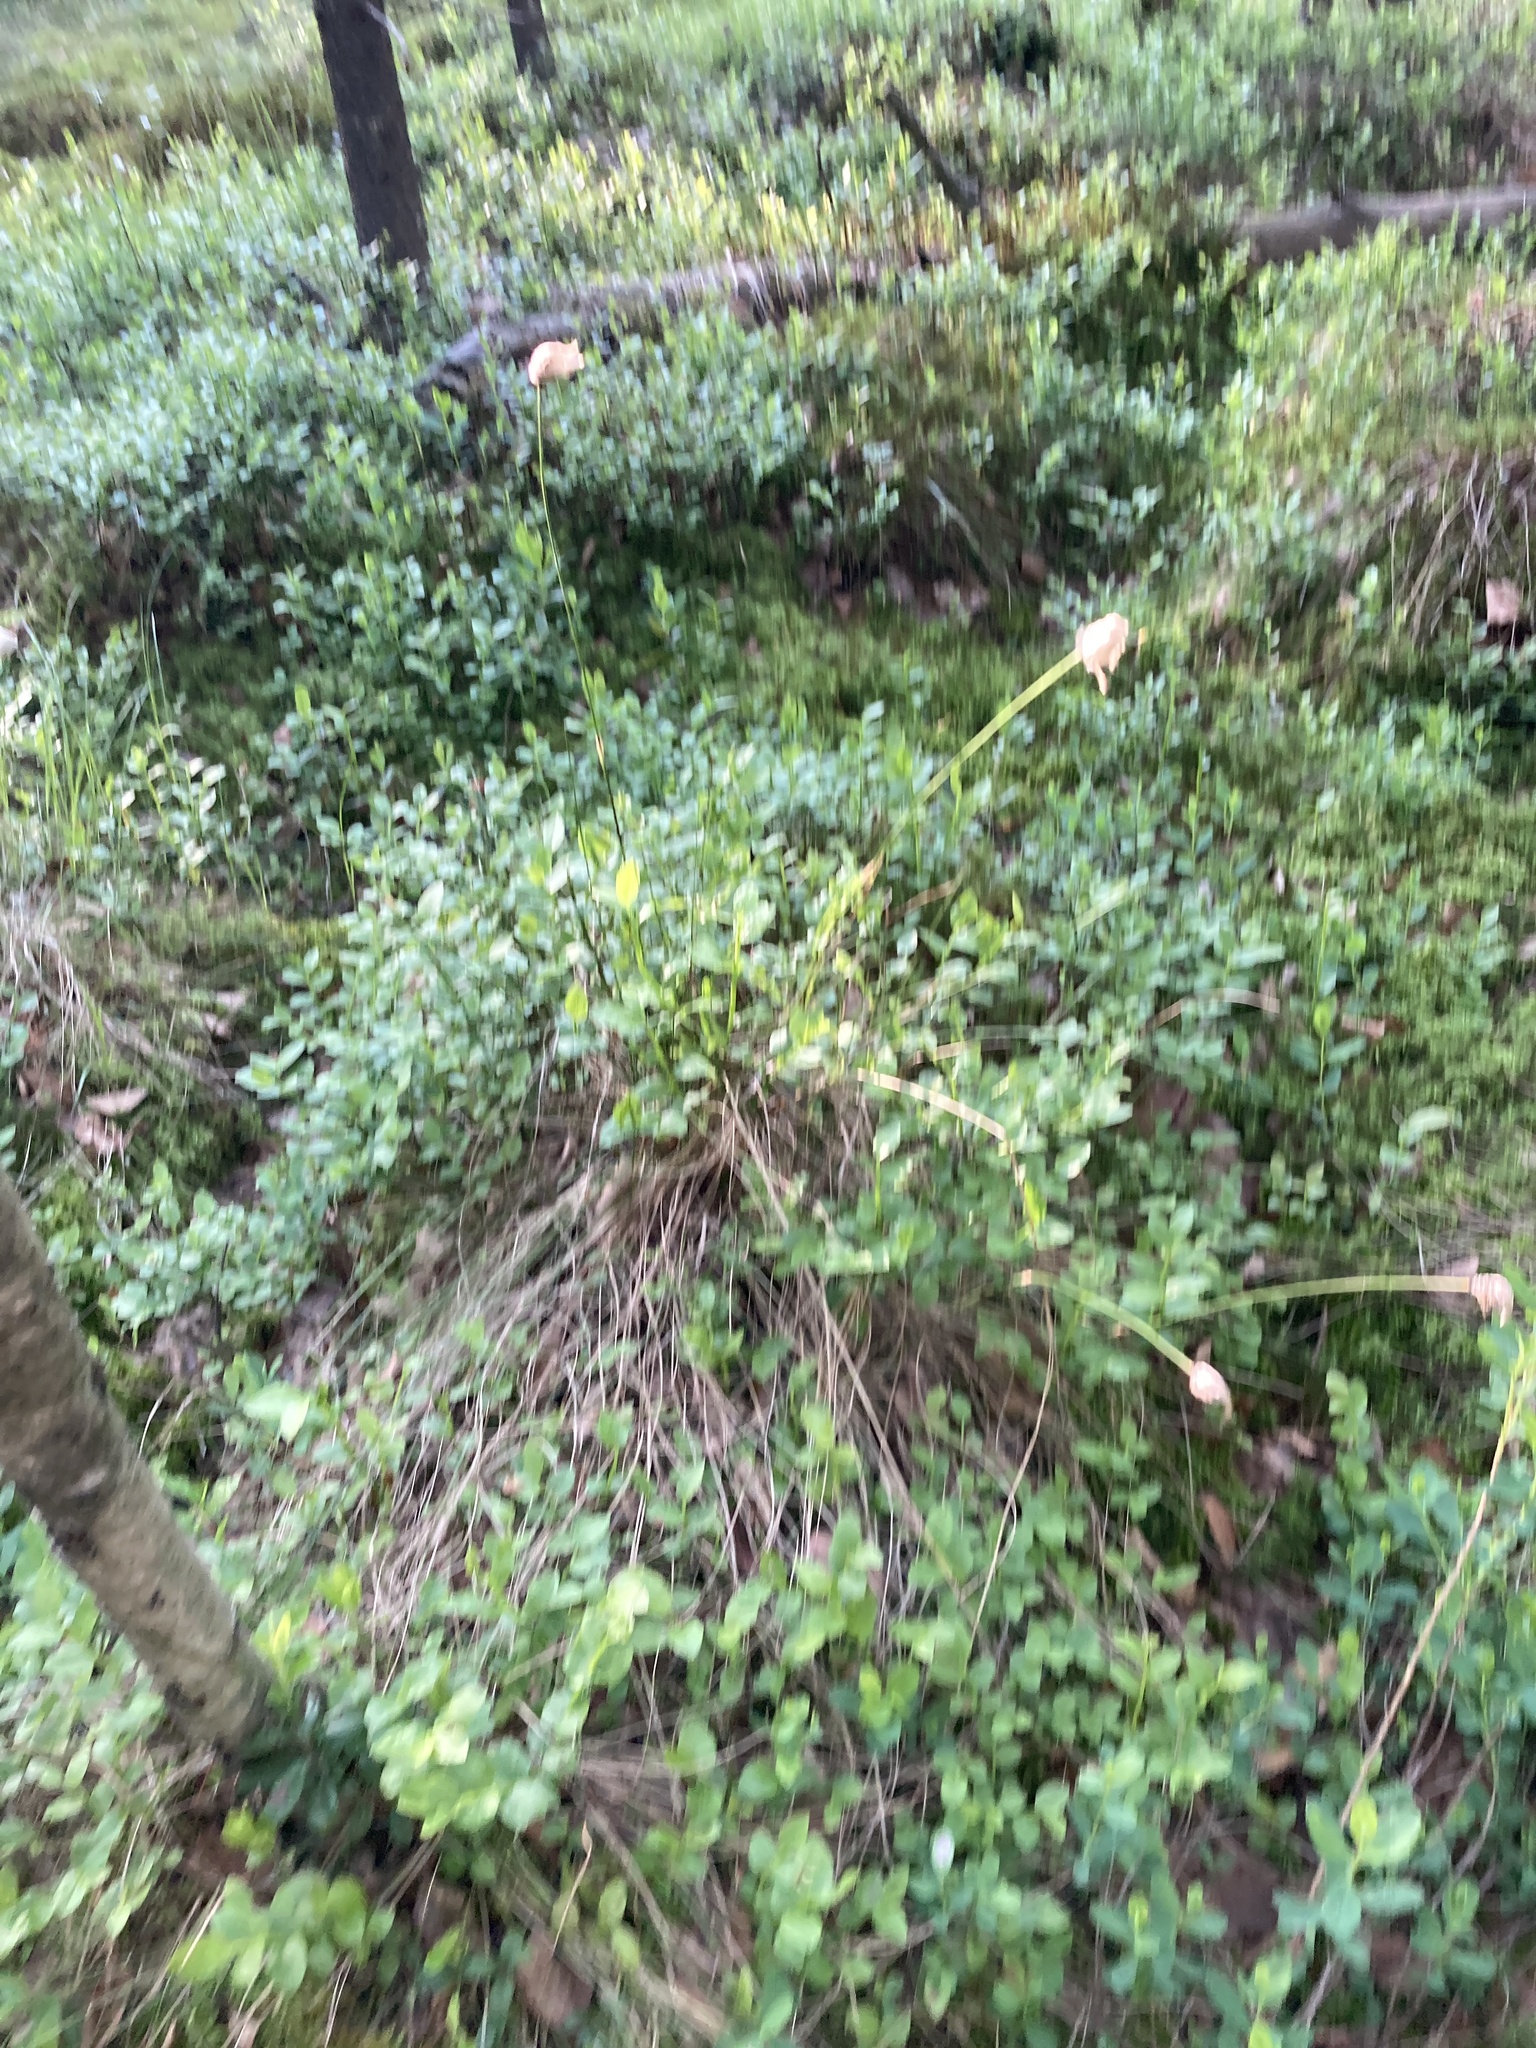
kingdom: Plantae
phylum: Tracheophyta
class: Liliopsida
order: Poales
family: Cyperaceae
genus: Eriophorum
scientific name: Eriophorum vaginatum
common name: Hare's-tail cottongrass
